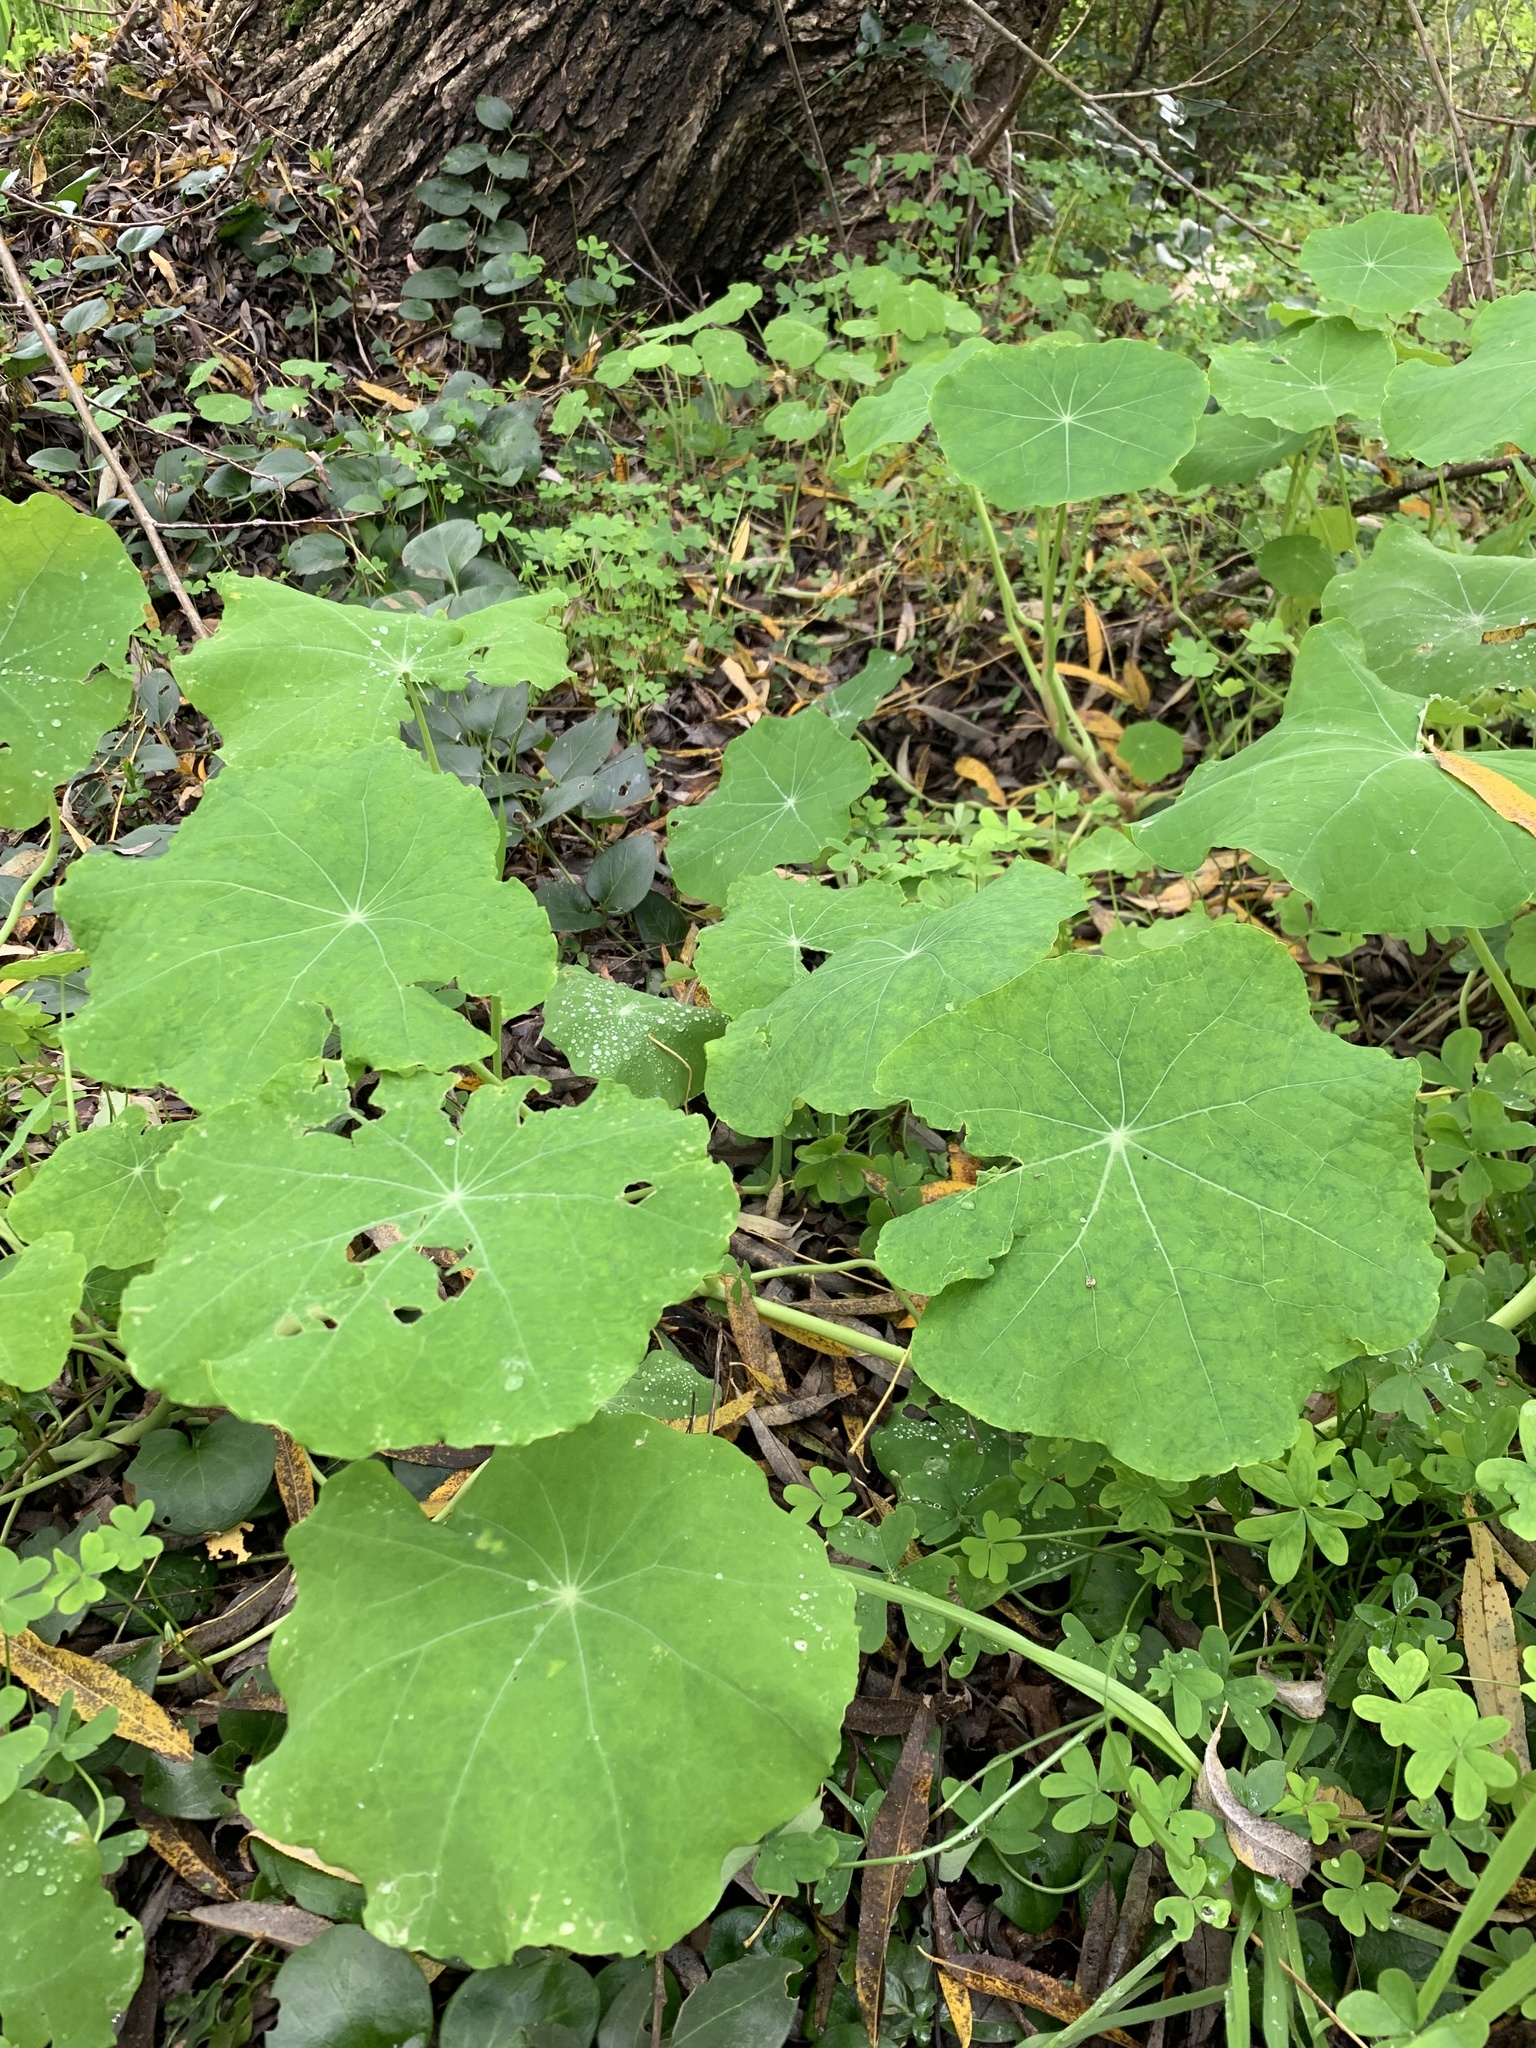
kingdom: Plantae
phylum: Tracheophyta
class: Magnoliopsida
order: Brassicales
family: Tropaeolaceae
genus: Tropaeolum
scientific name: Tropaeolum majus
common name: Nasturtium
